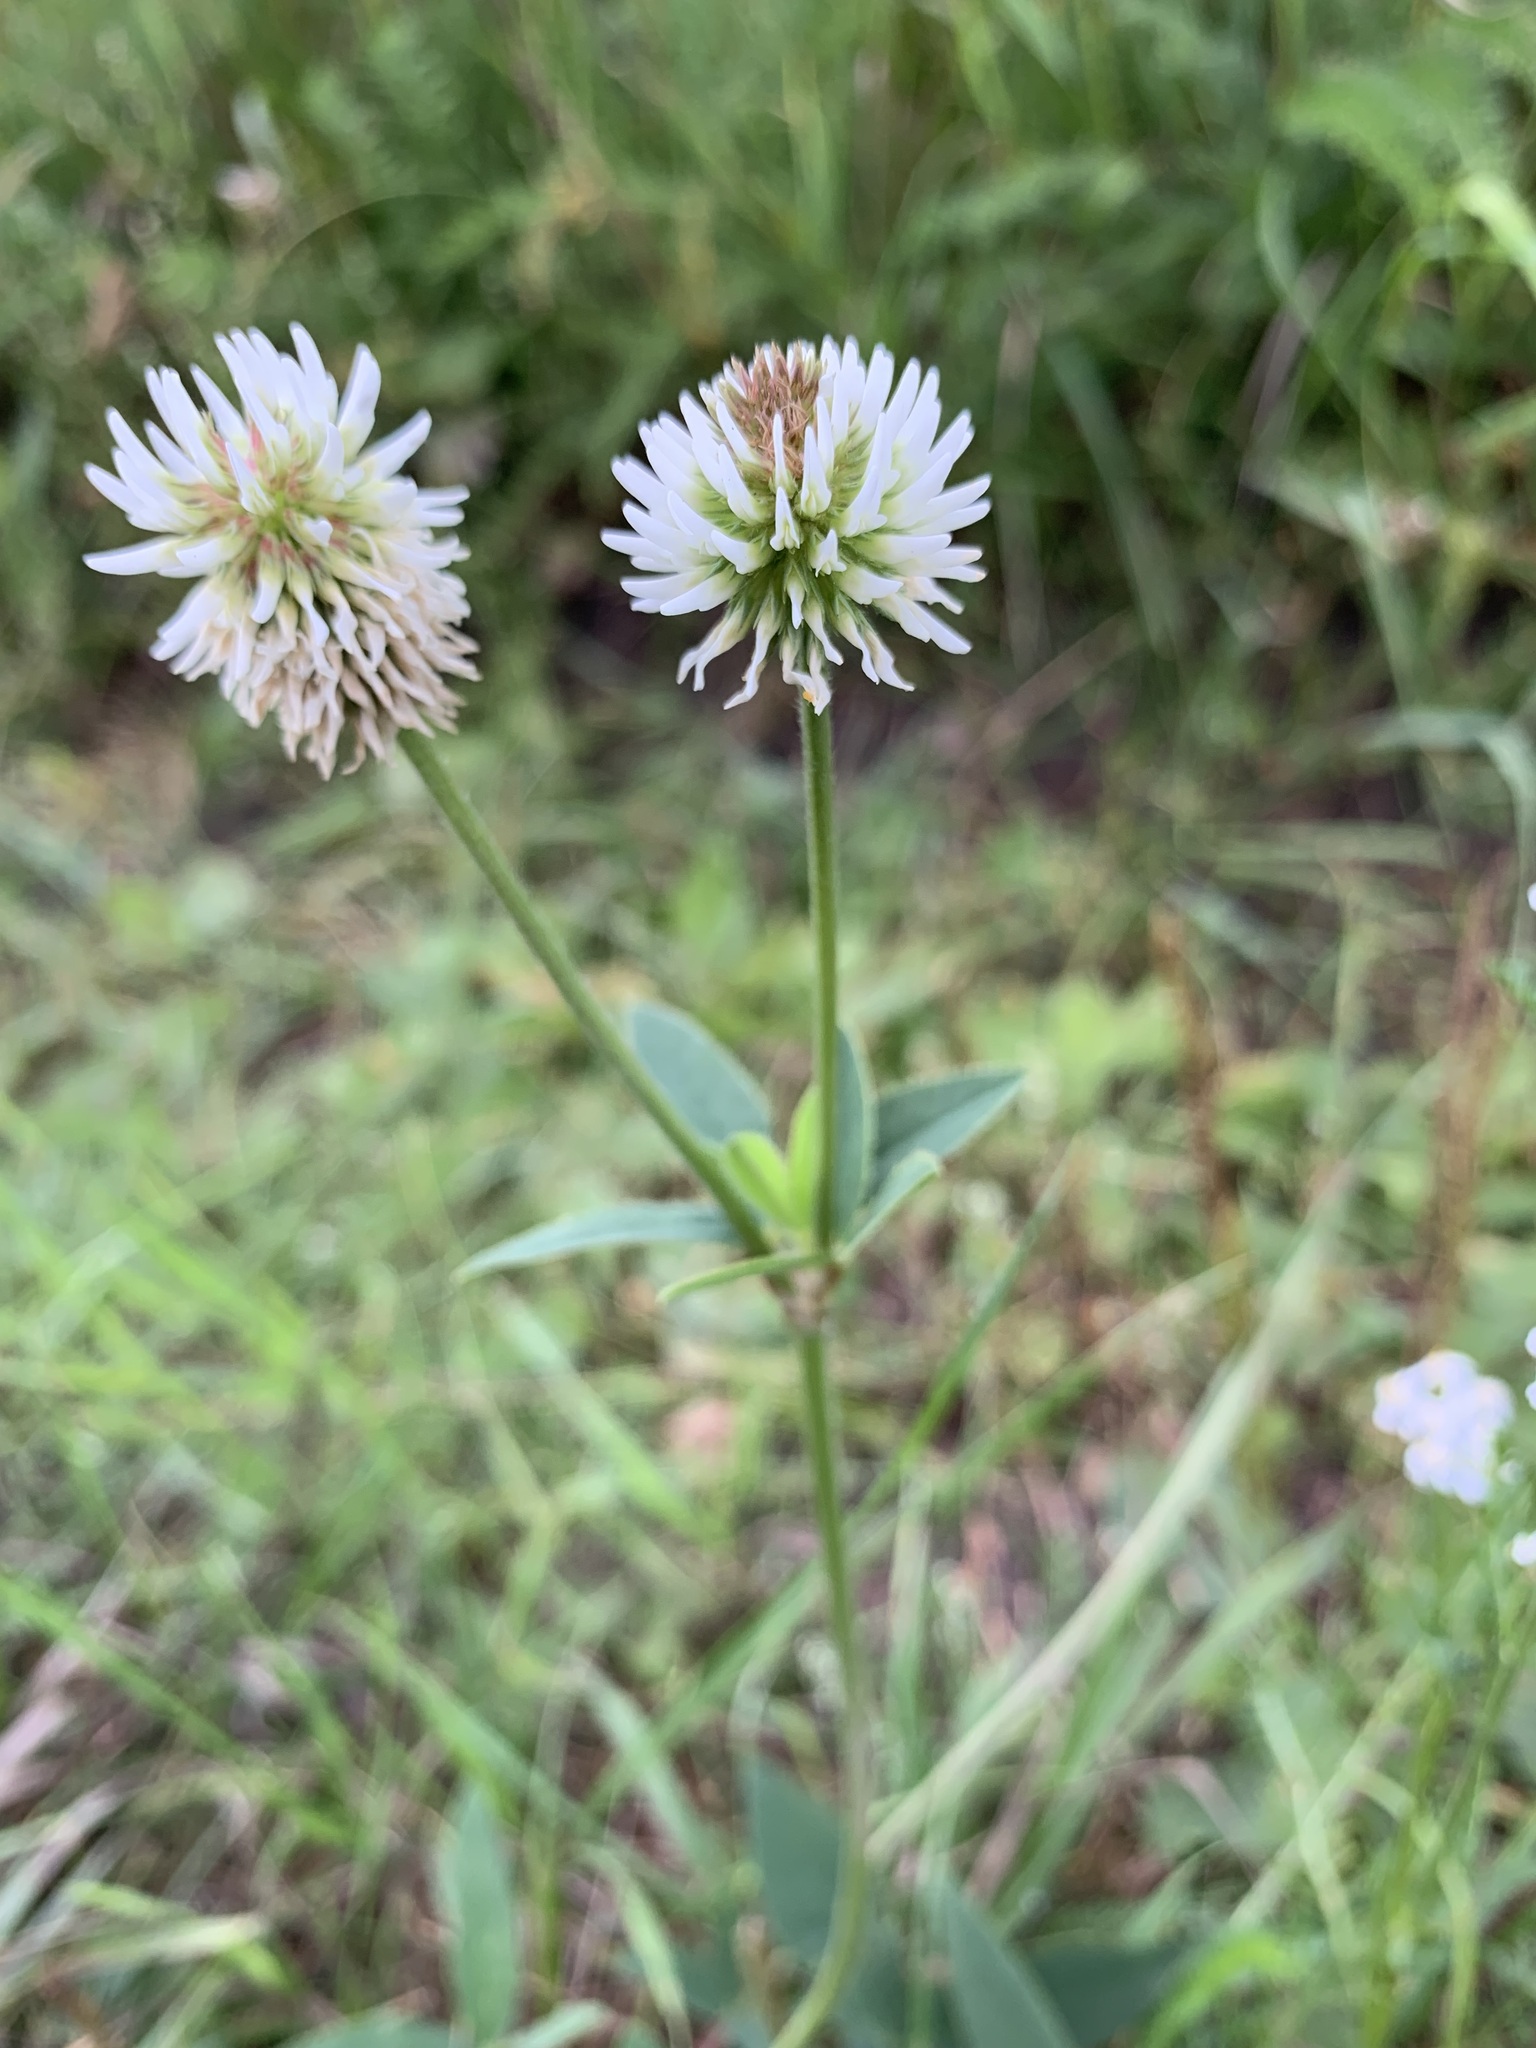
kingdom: Plantae
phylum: Tracheophyta
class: Magnoliopsida
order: Fabales
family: Fabaceae
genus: Trifolium
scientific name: Trifolium montanum
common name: Mountain clover
